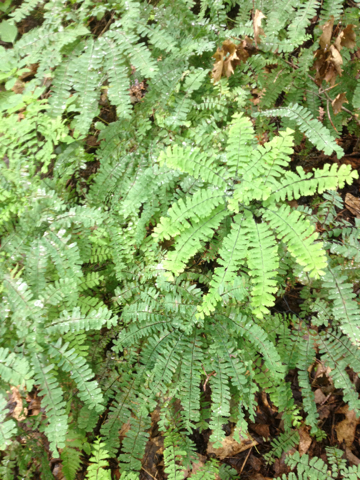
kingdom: Plantae
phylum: Tracheophyta
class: Polypodiopsida
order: Polypodiales
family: Pteridaceae
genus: Adiantum
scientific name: Adiantum pedatum
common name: Five-finger fern
